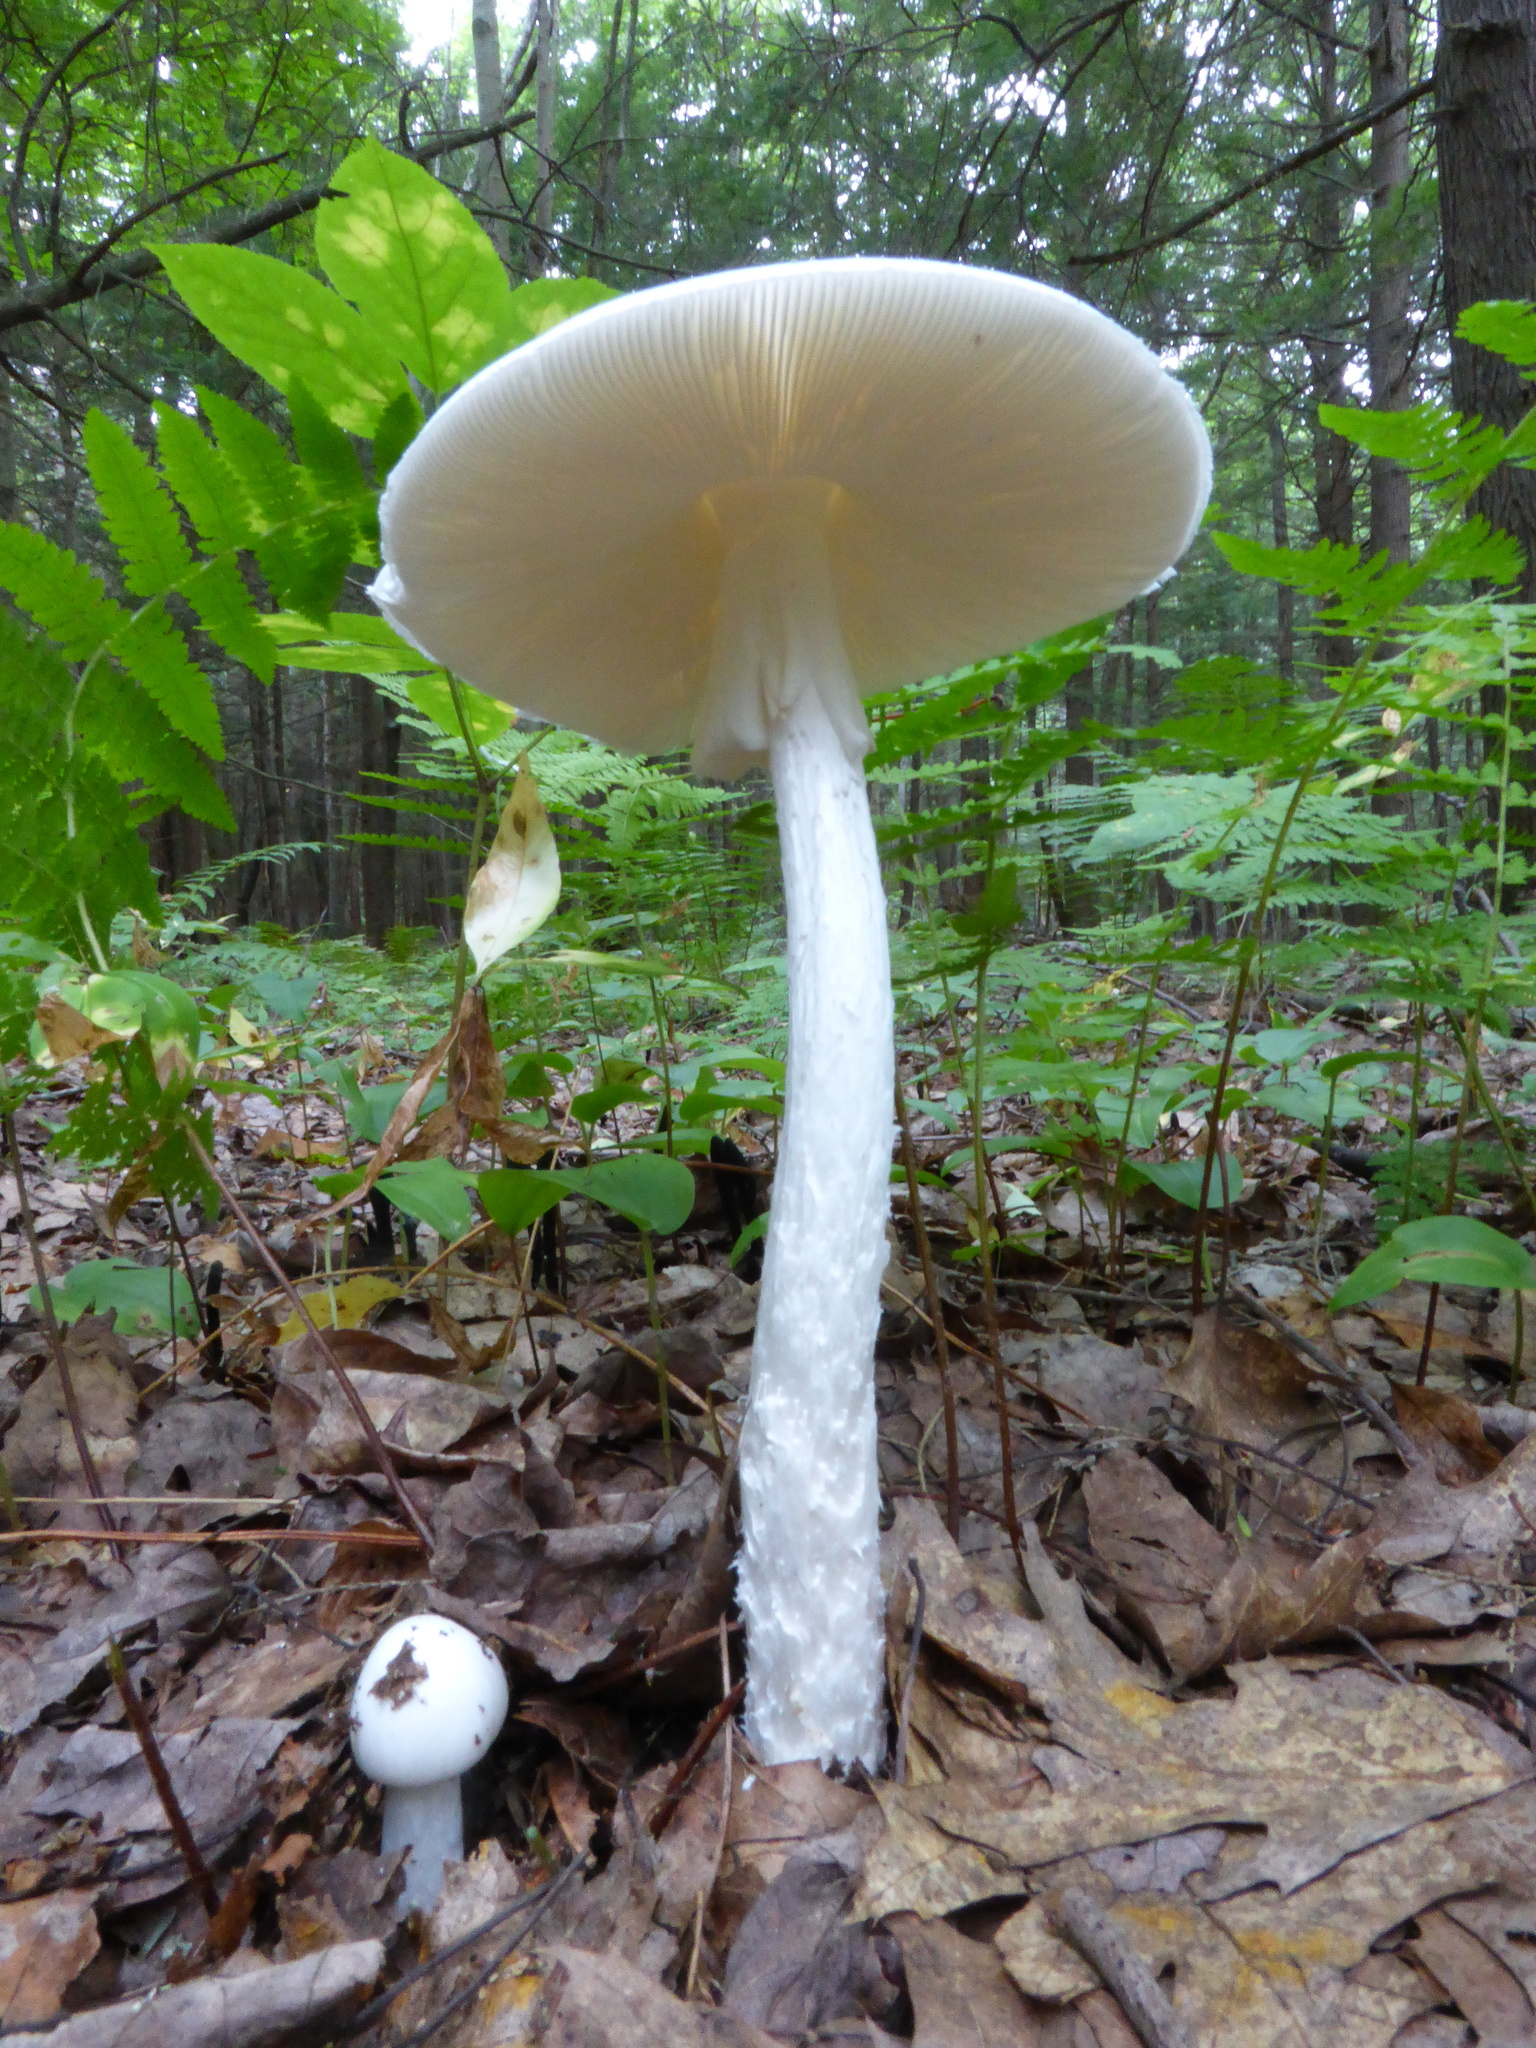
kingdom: Fungi
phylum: Basidiomycota
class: Agaricomycetes
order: Agaricales
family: Amanitaceae
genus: Amanita
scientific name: Amanita bisporigera
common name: Eastern north american destroying angel
